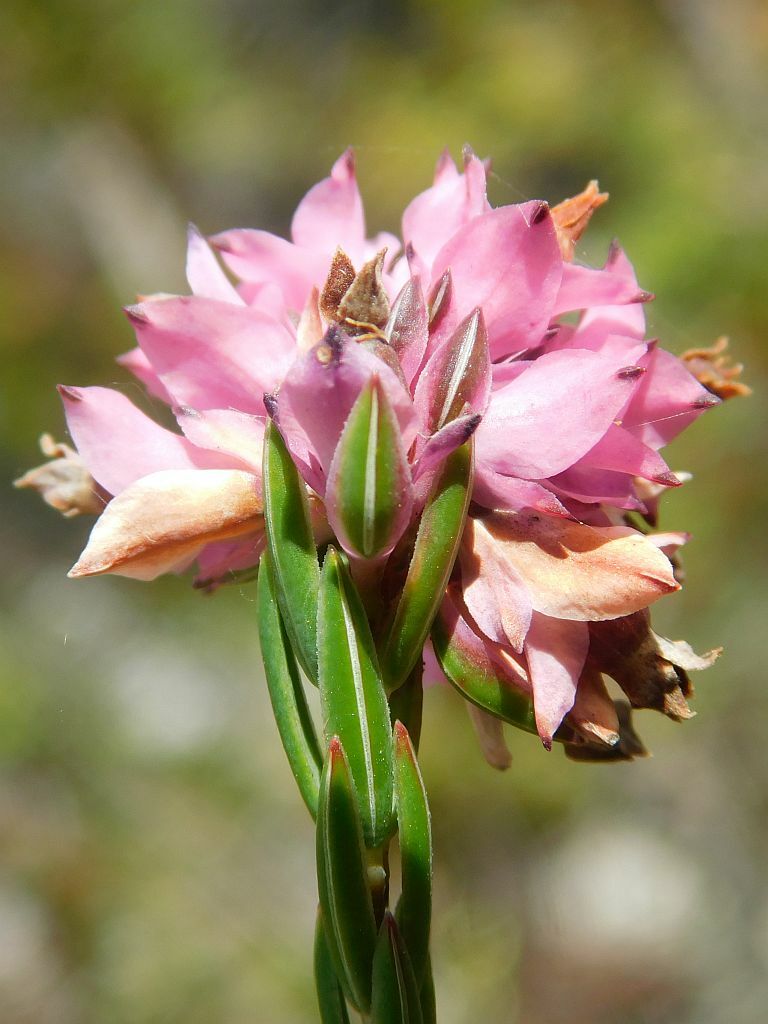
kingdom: Plantae
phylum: Tracheophyta
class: Magnoliopsida
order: Ericales
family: Ericaceae
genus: Erica
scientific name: Erica corifolia
